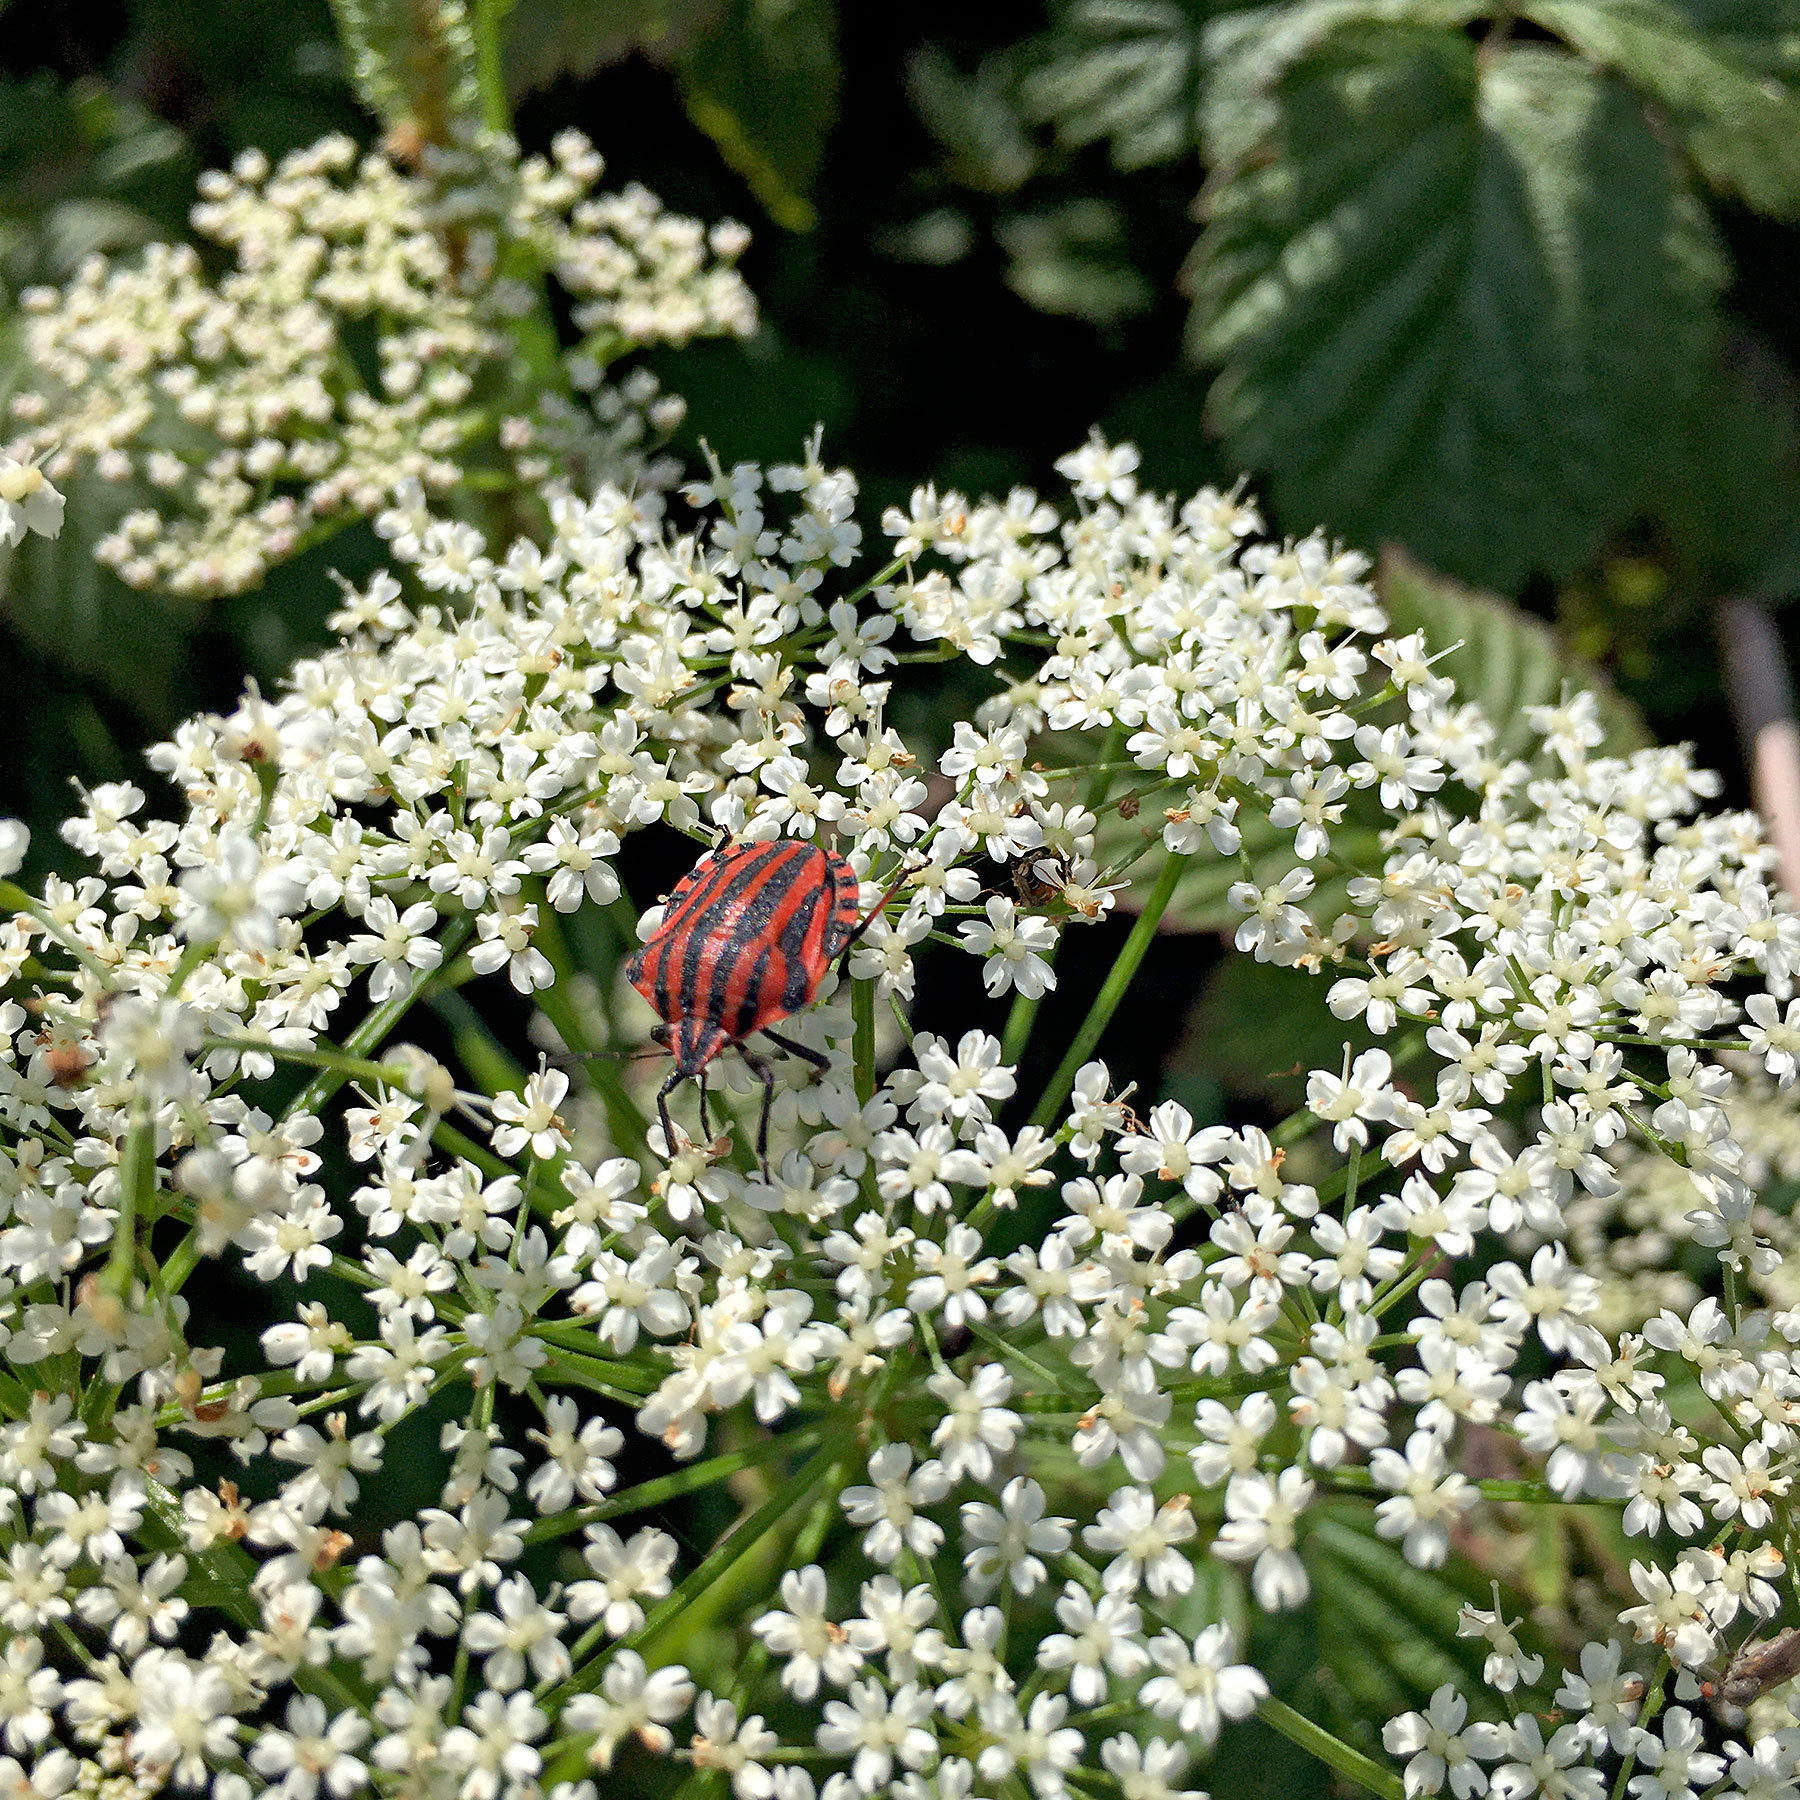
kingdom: Animalia
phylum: Arthropoda
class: Insecta
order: Hemiptera
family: Pentatomidae
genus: Graphosoma
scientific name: Graphosoma italicum
